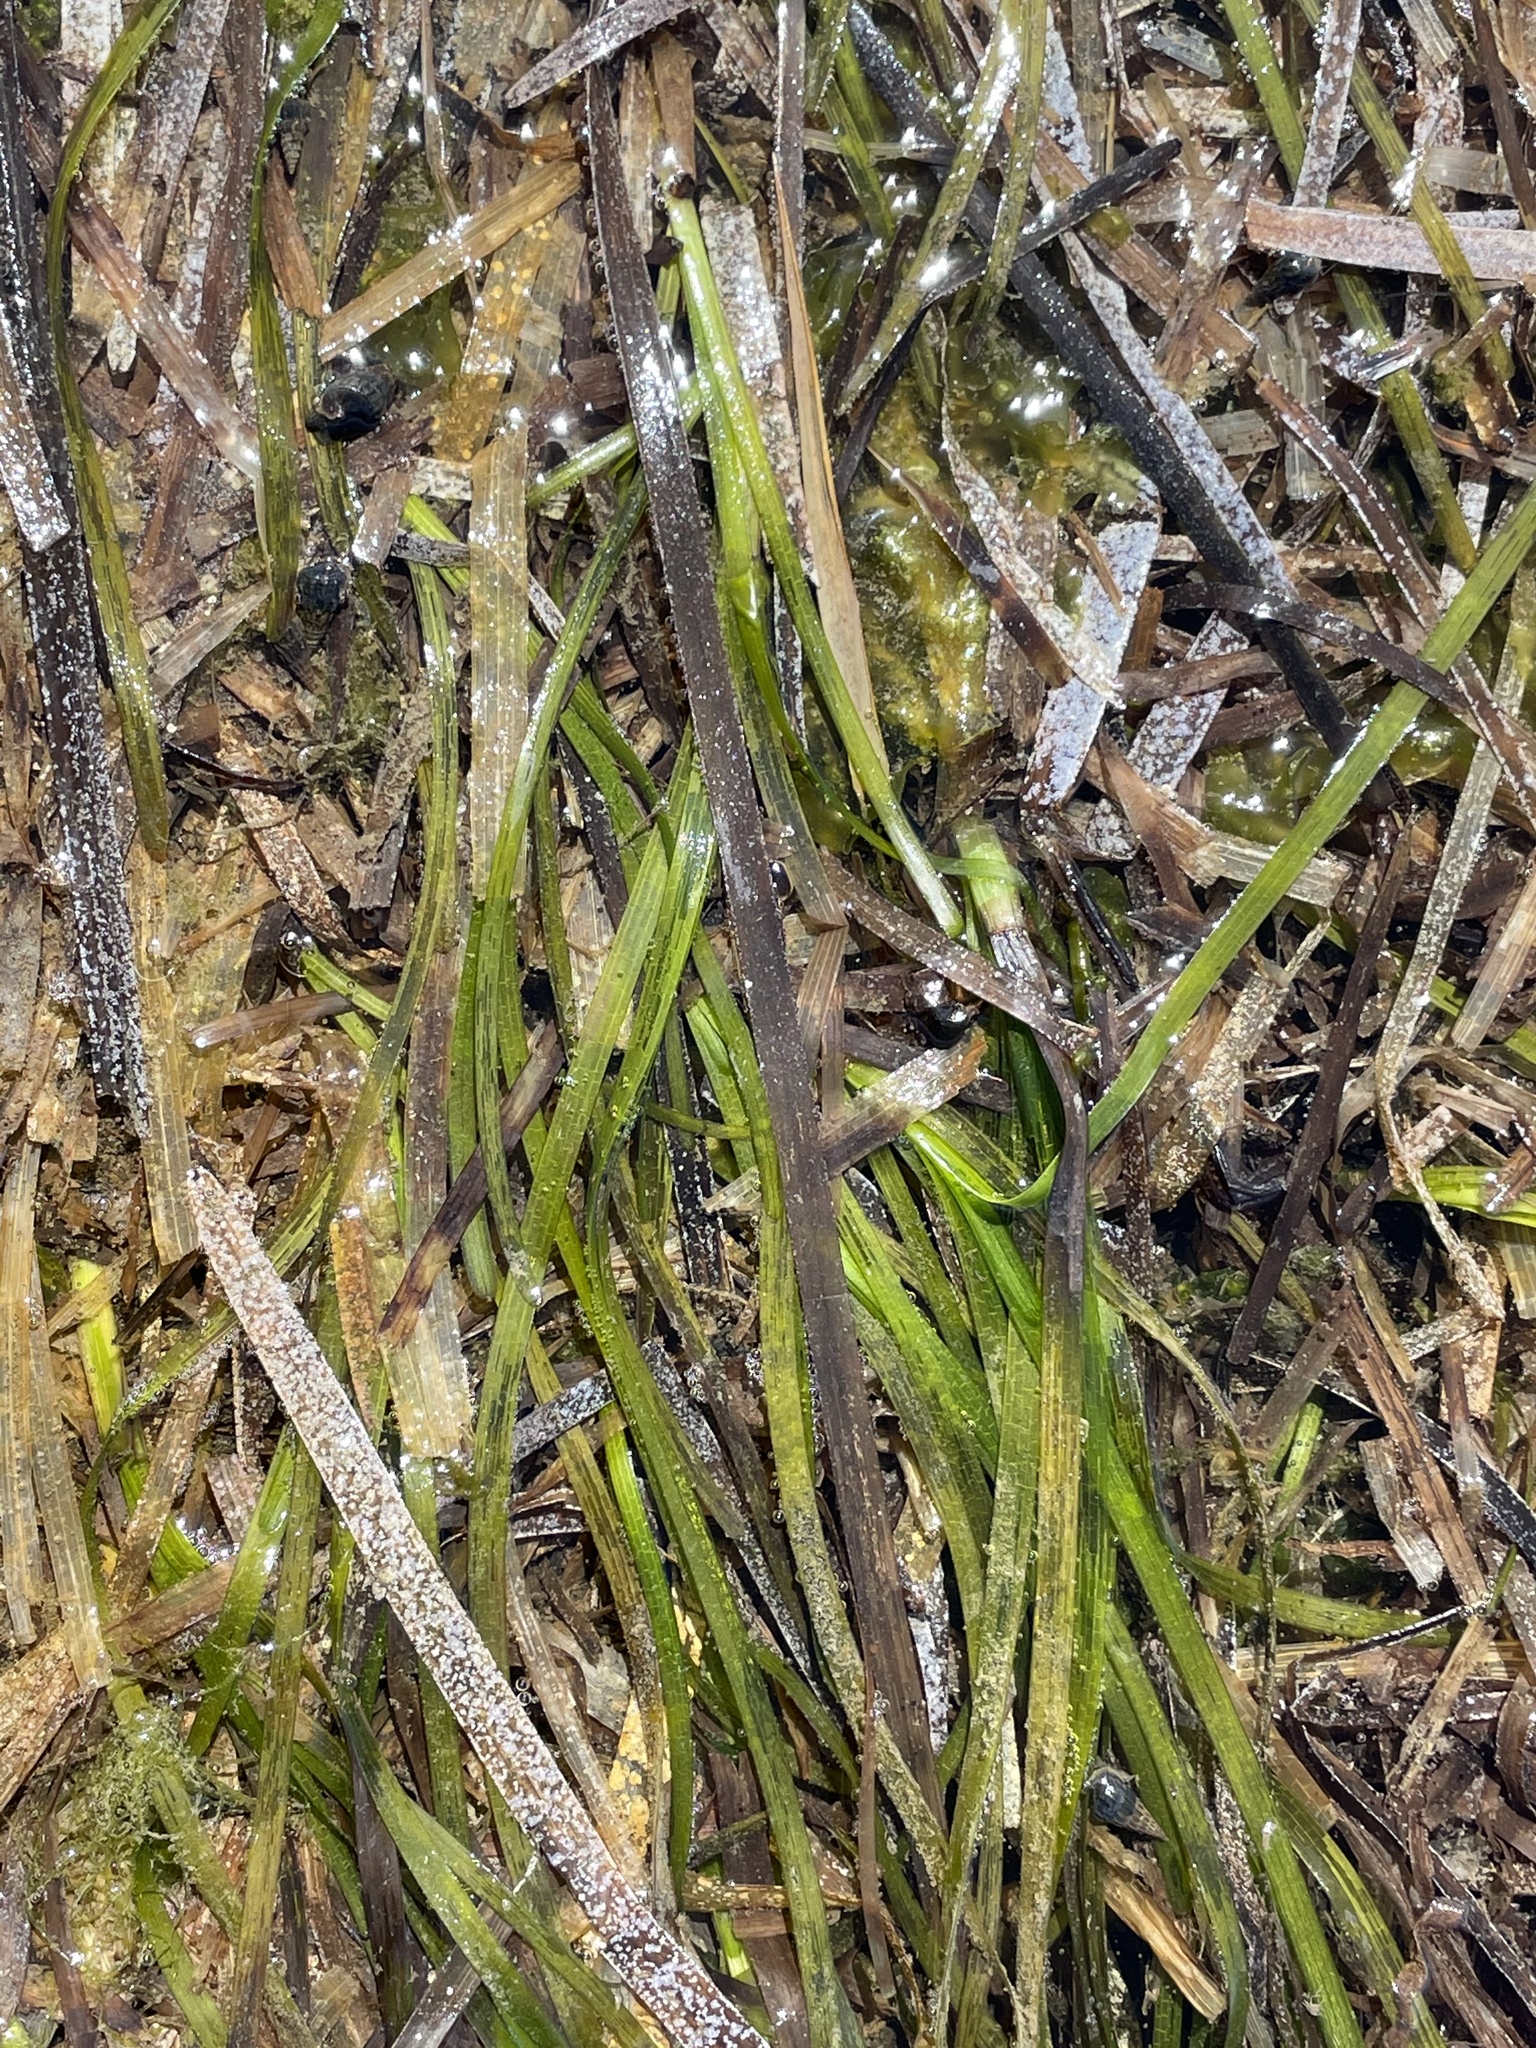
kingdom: Plantae
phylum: Tracheophyta
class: Liliopsida
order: Alismatales
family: Zosteraceae
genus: Zostera
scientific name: Zostera marina
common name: Eelgrass
